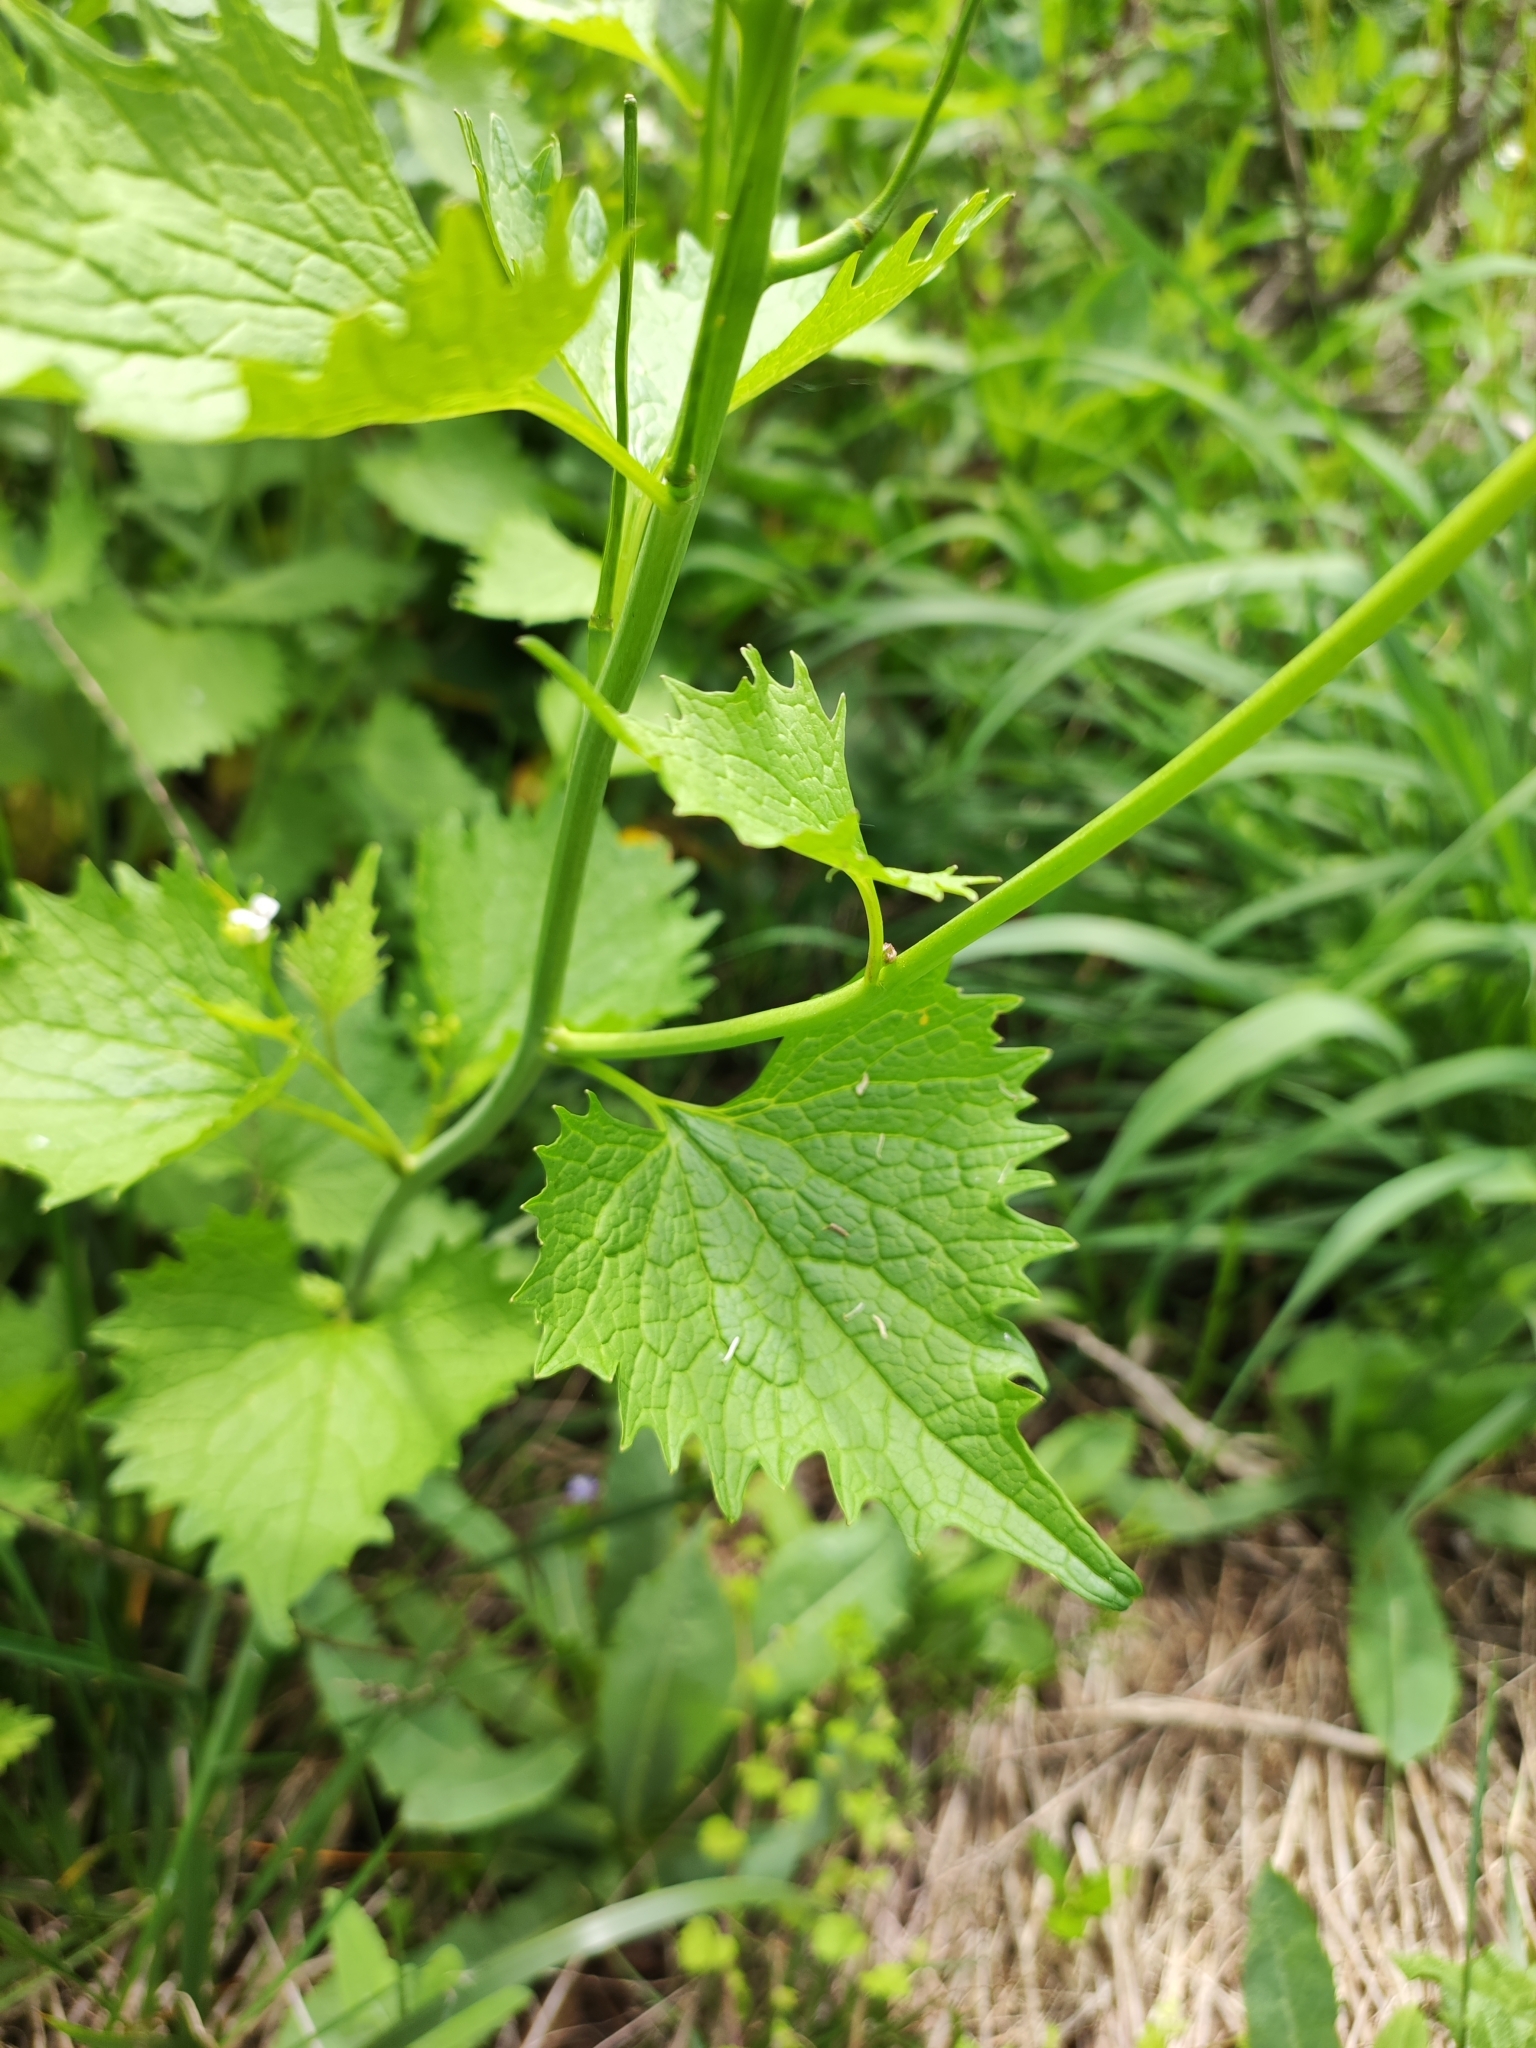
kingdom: Plantae
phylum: Tracheophyta
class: Magnoliopsida
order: Brassicales
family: Brassicaceae
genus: Alliaria
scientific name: Alliaria petiolata
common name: Garlic mustard
